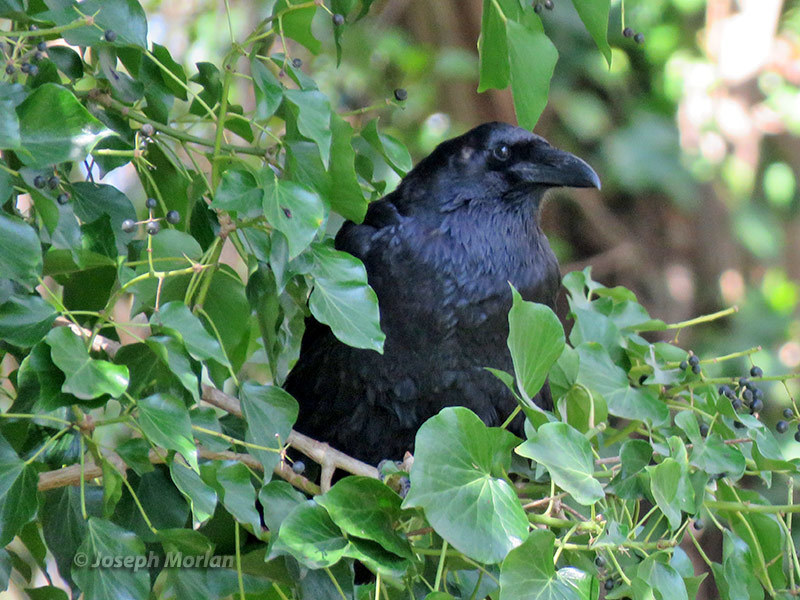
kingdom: Animalia
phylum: Chordata
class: Aves
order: Passeriformes
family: Corvidae
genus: Corvus
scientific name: Corvus corax
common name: Common raven
